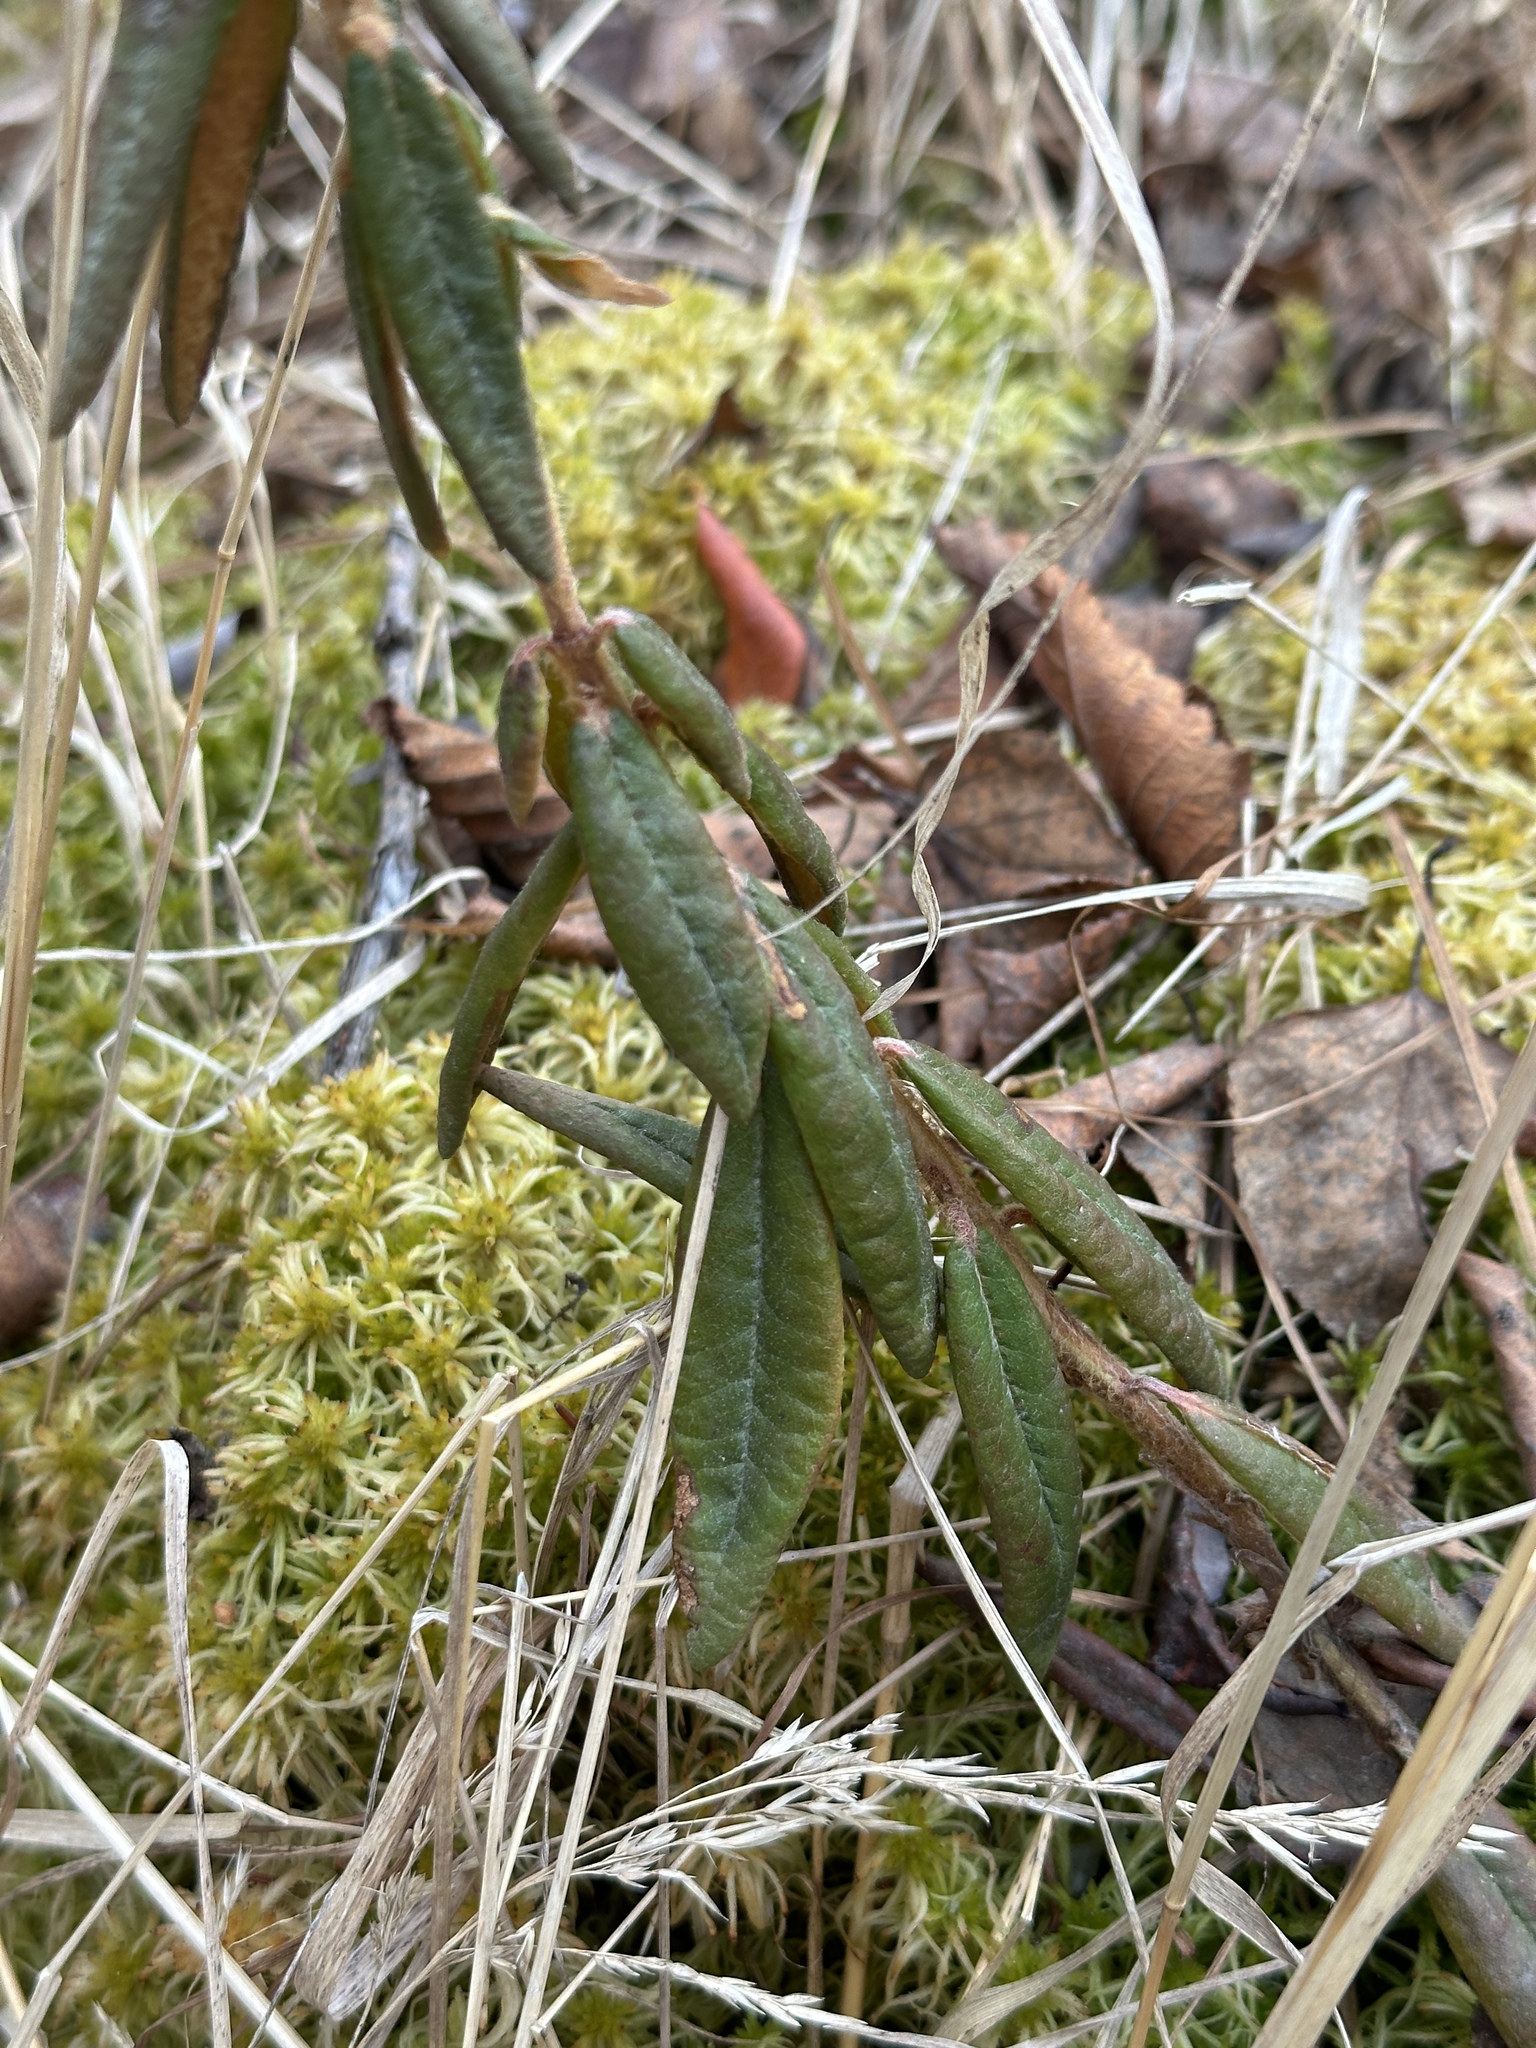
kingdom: Plantae
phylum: Tracheophyta
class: Magnoliopsida
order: Ericales
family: Ericaceae
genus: Rhododendron
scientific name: Rhododendron groenlandicum
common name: Bog labrador tea
